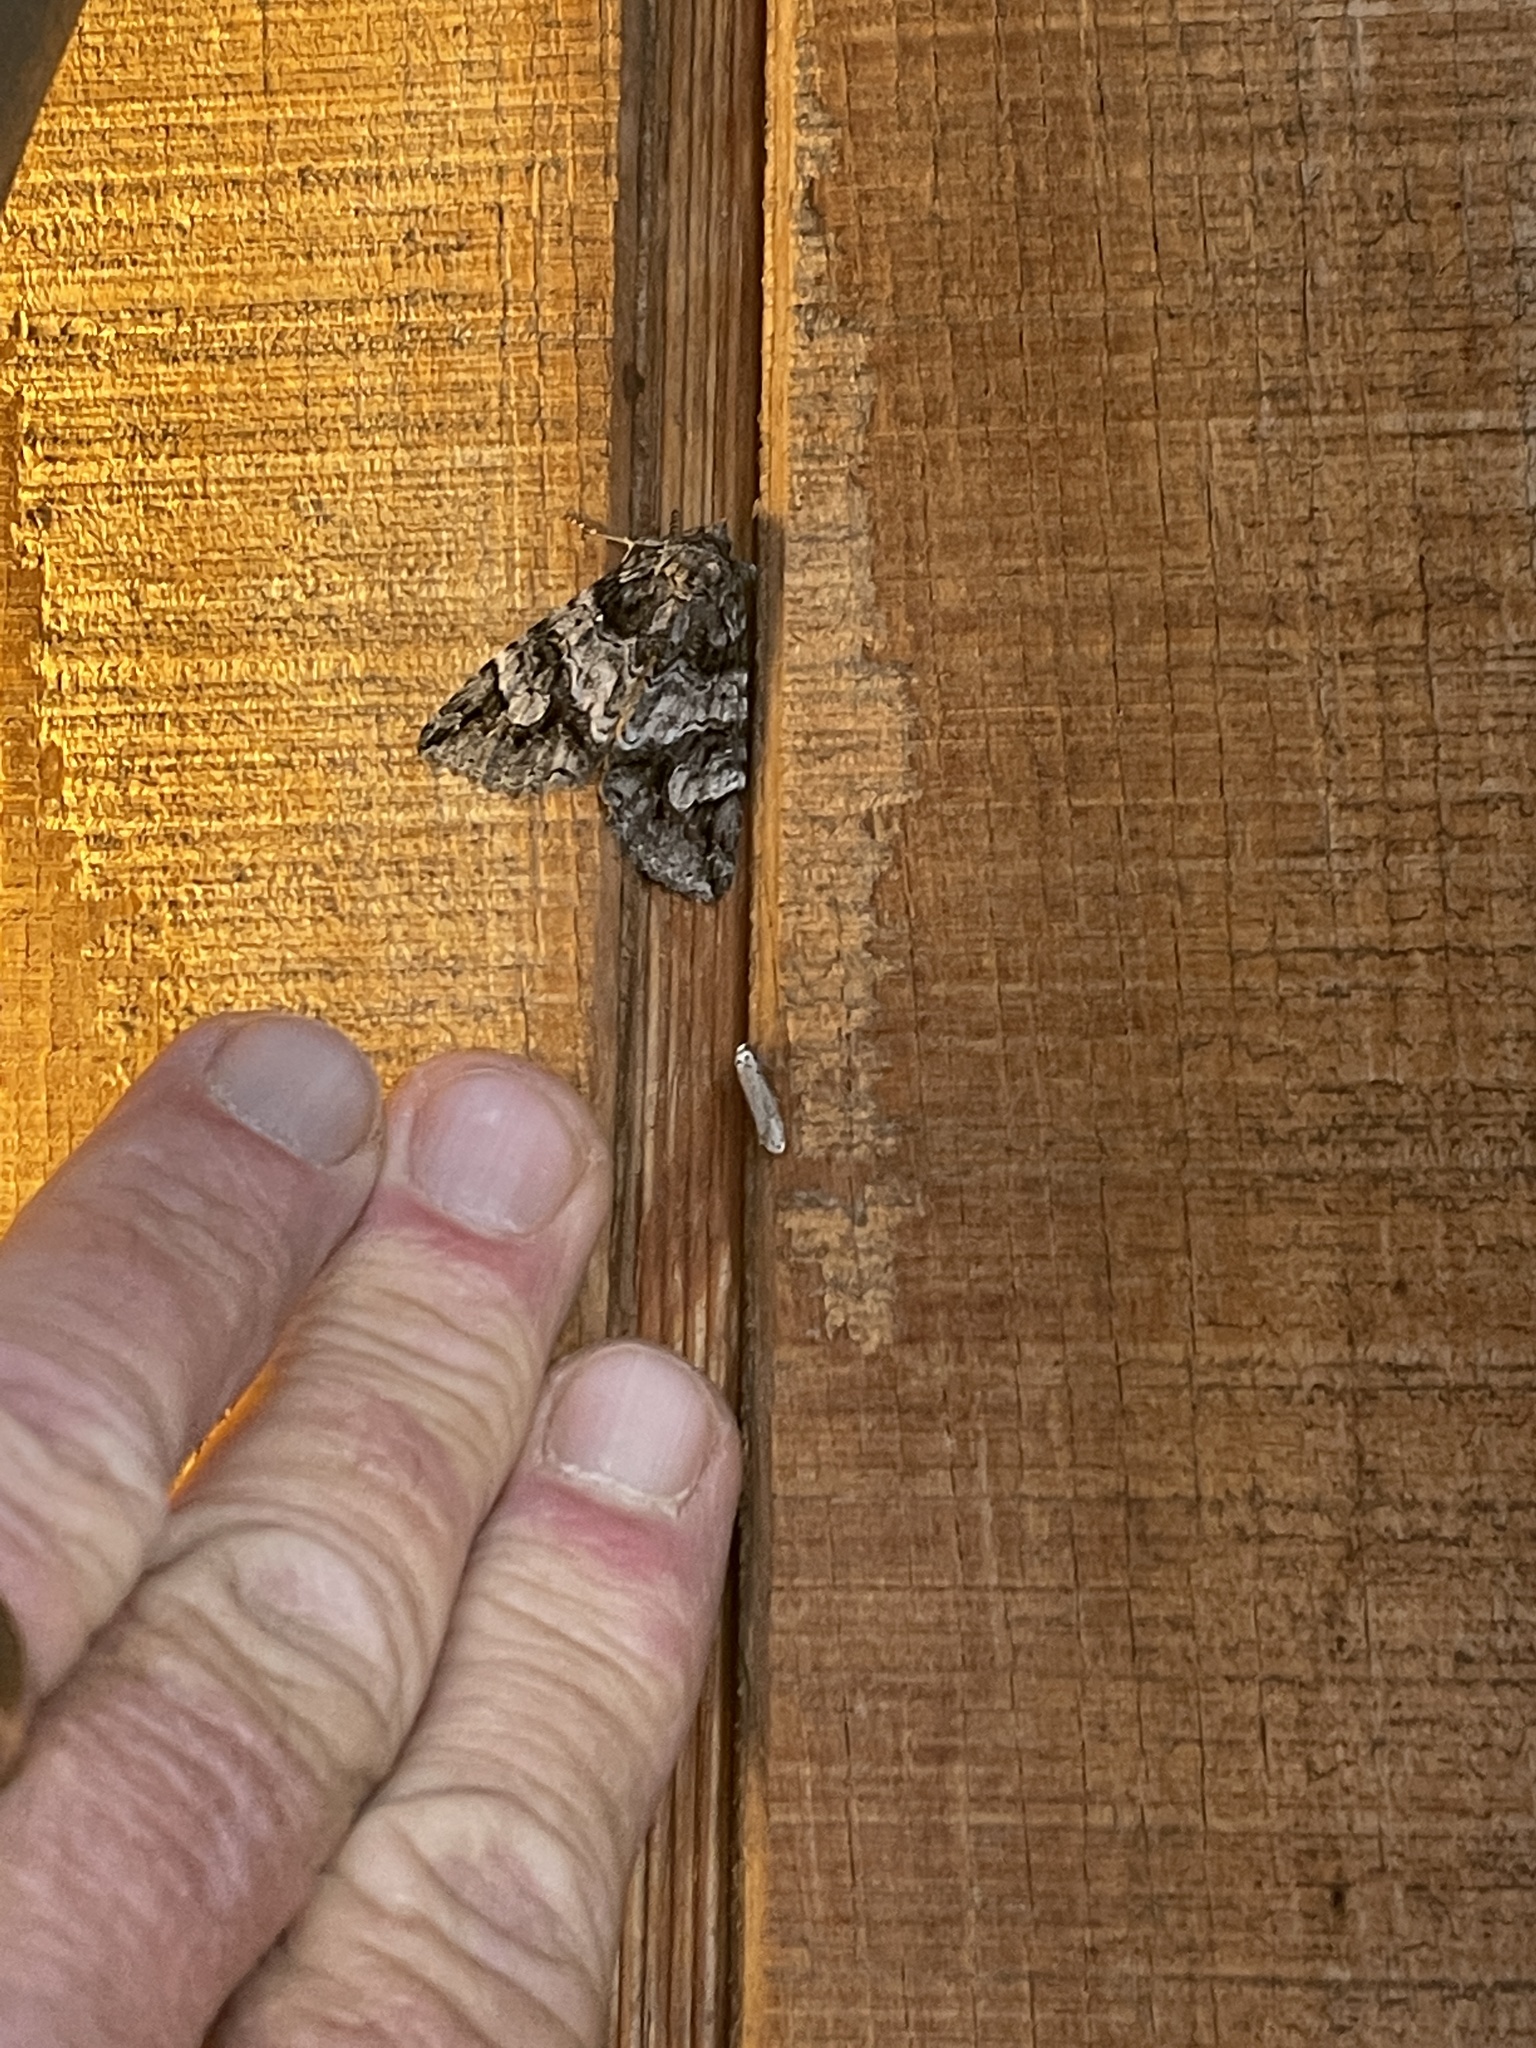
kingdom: Animalia
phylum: Arthropoda
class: Insecta
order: Lepidoptera
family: Erebidae
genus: Euparthenos
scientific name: Euparthenos nubilis
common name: Locust underwing
